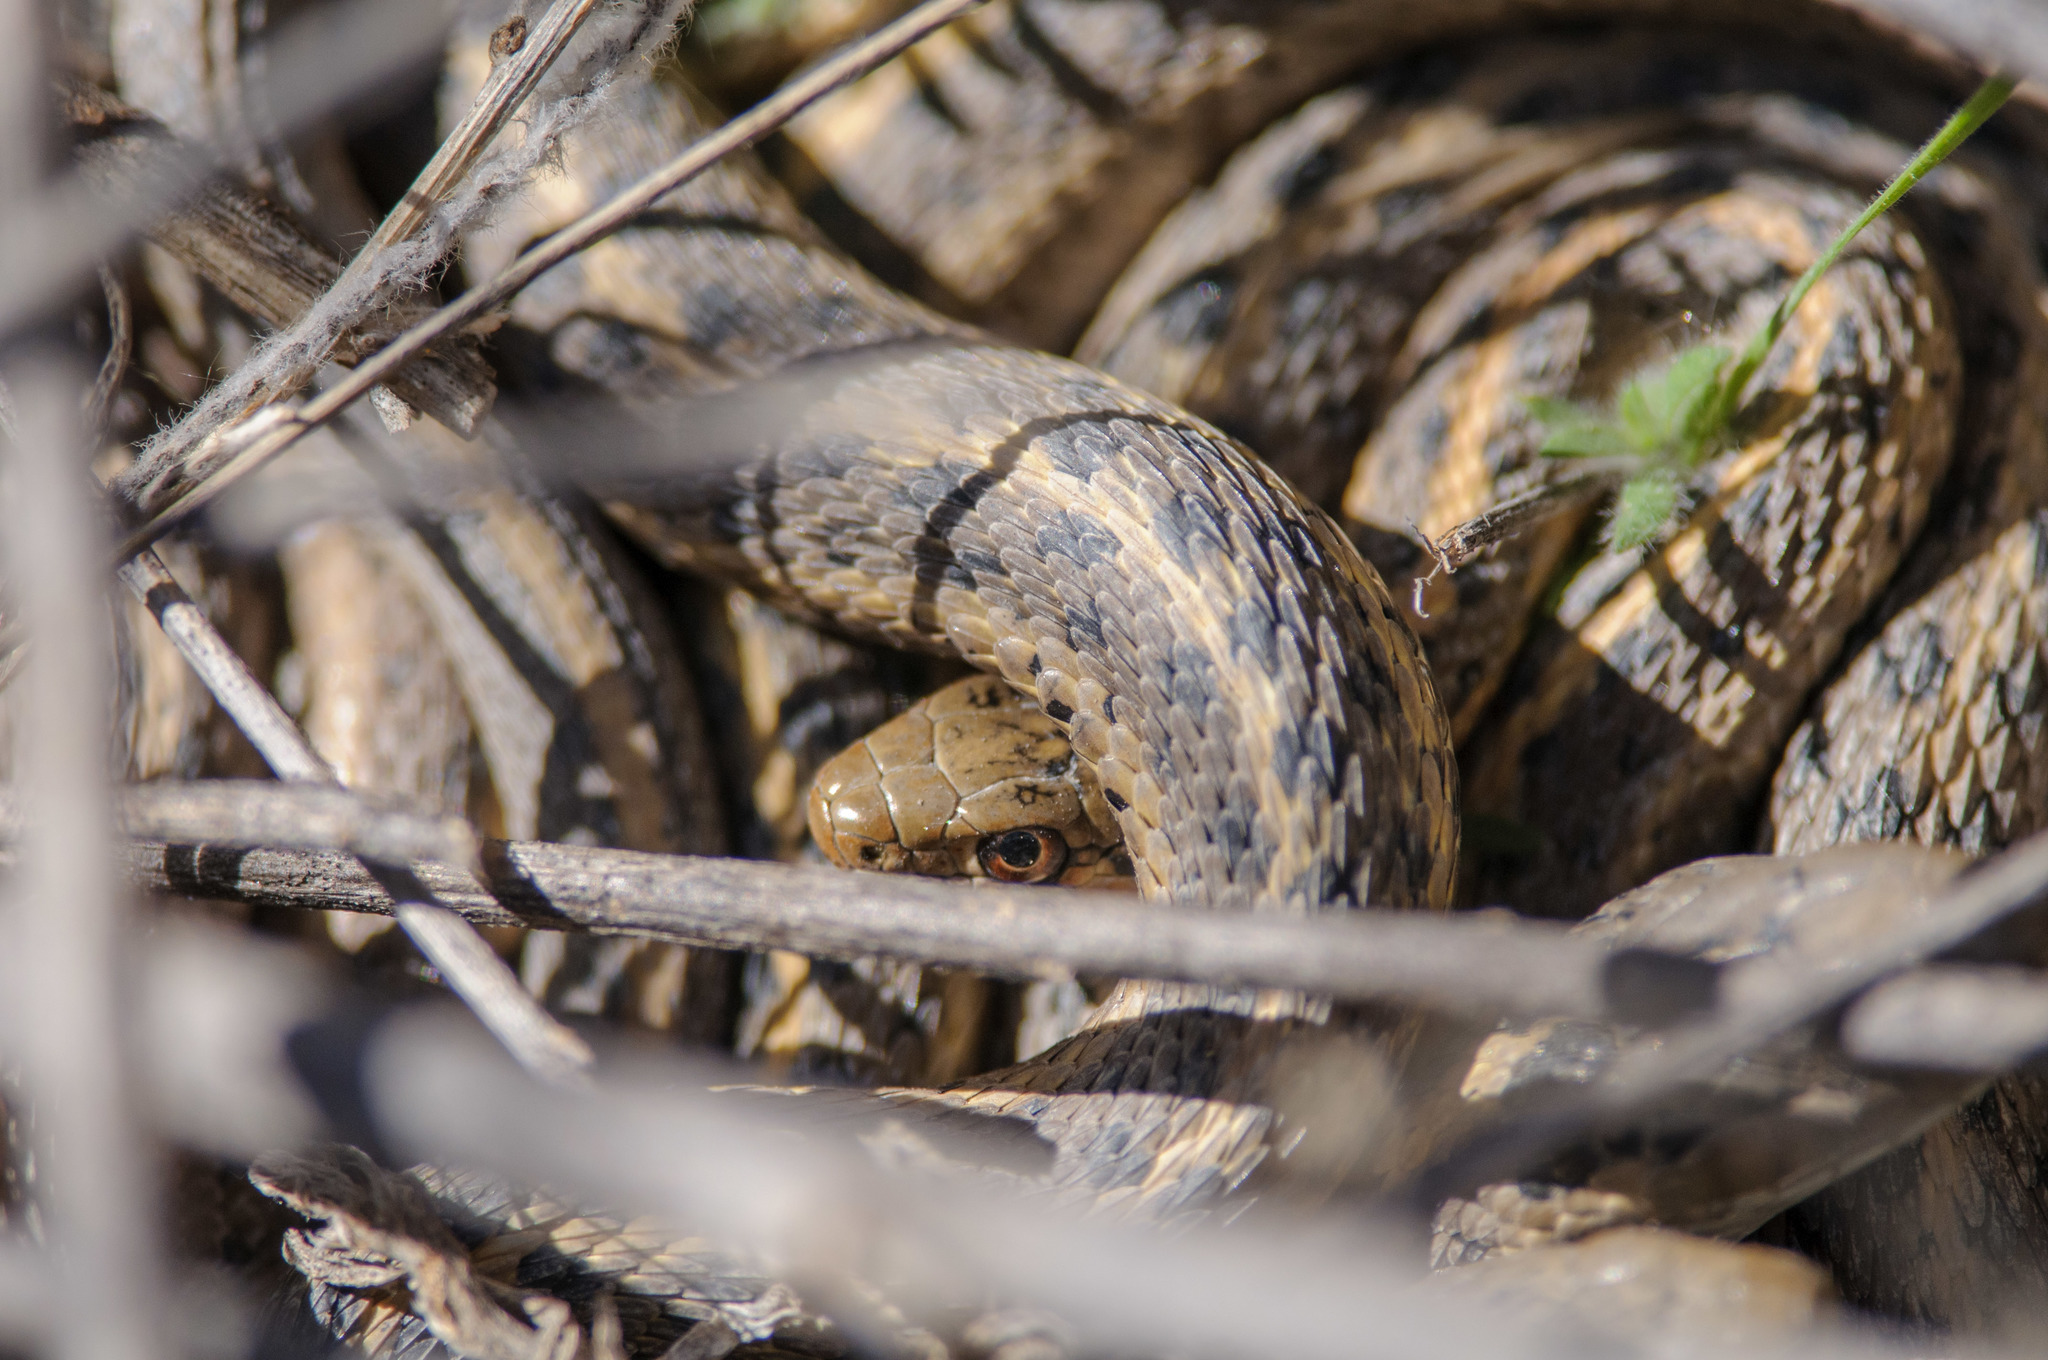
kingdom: Animalia
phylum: Chordata
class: Squamata
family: Colubridae
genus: Thamnophis
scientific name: Thamnophis elegans
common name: Western terrestrial garter snake
